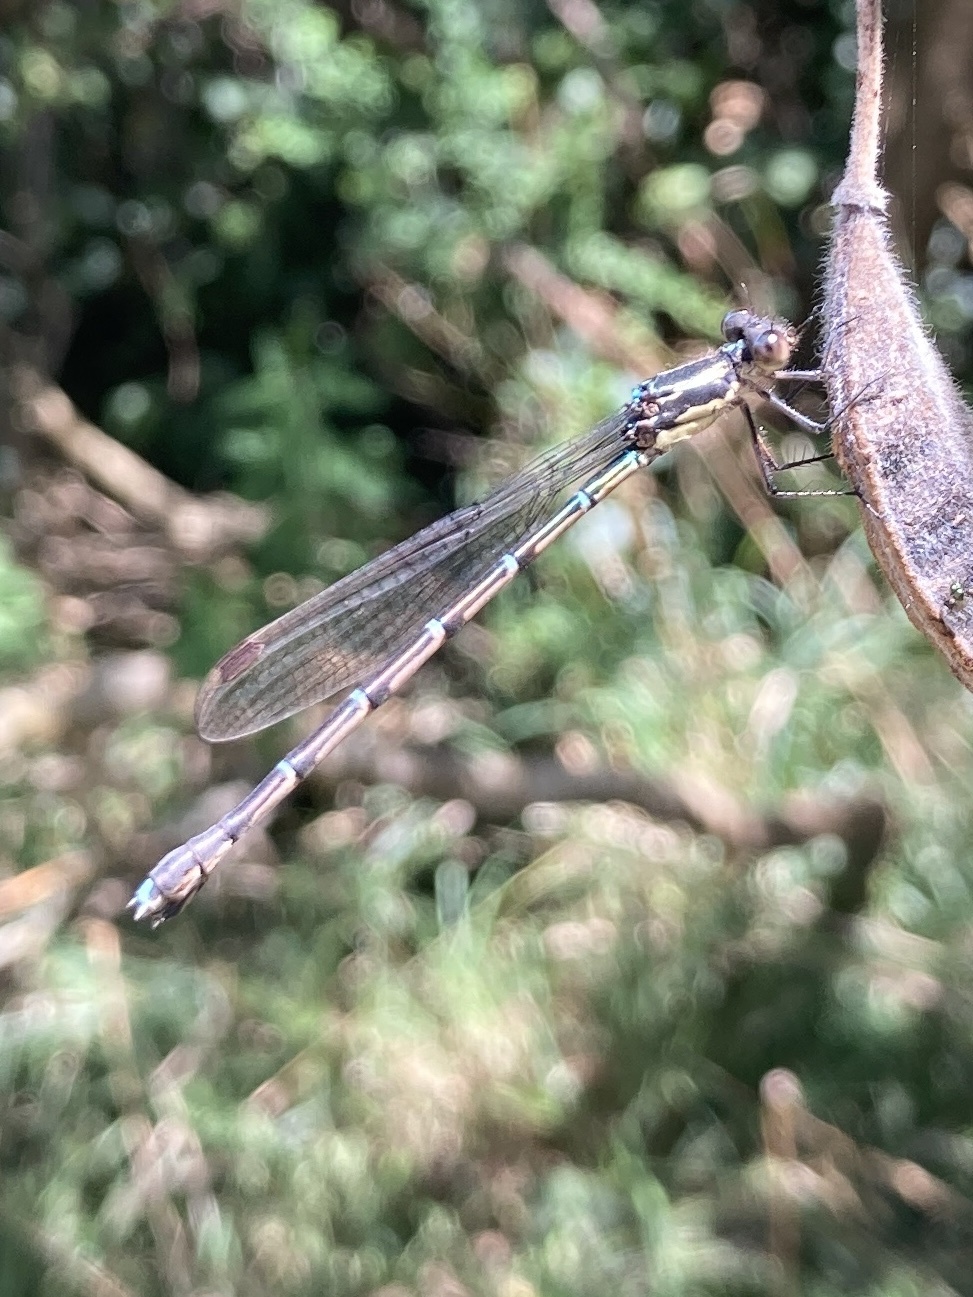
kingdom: Animalia
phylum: Arthropoda
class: Insecta
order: Odonata
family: Lestidae
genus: Austrolestes
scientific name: Austrolestes colensonis
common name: Blue damselfly
